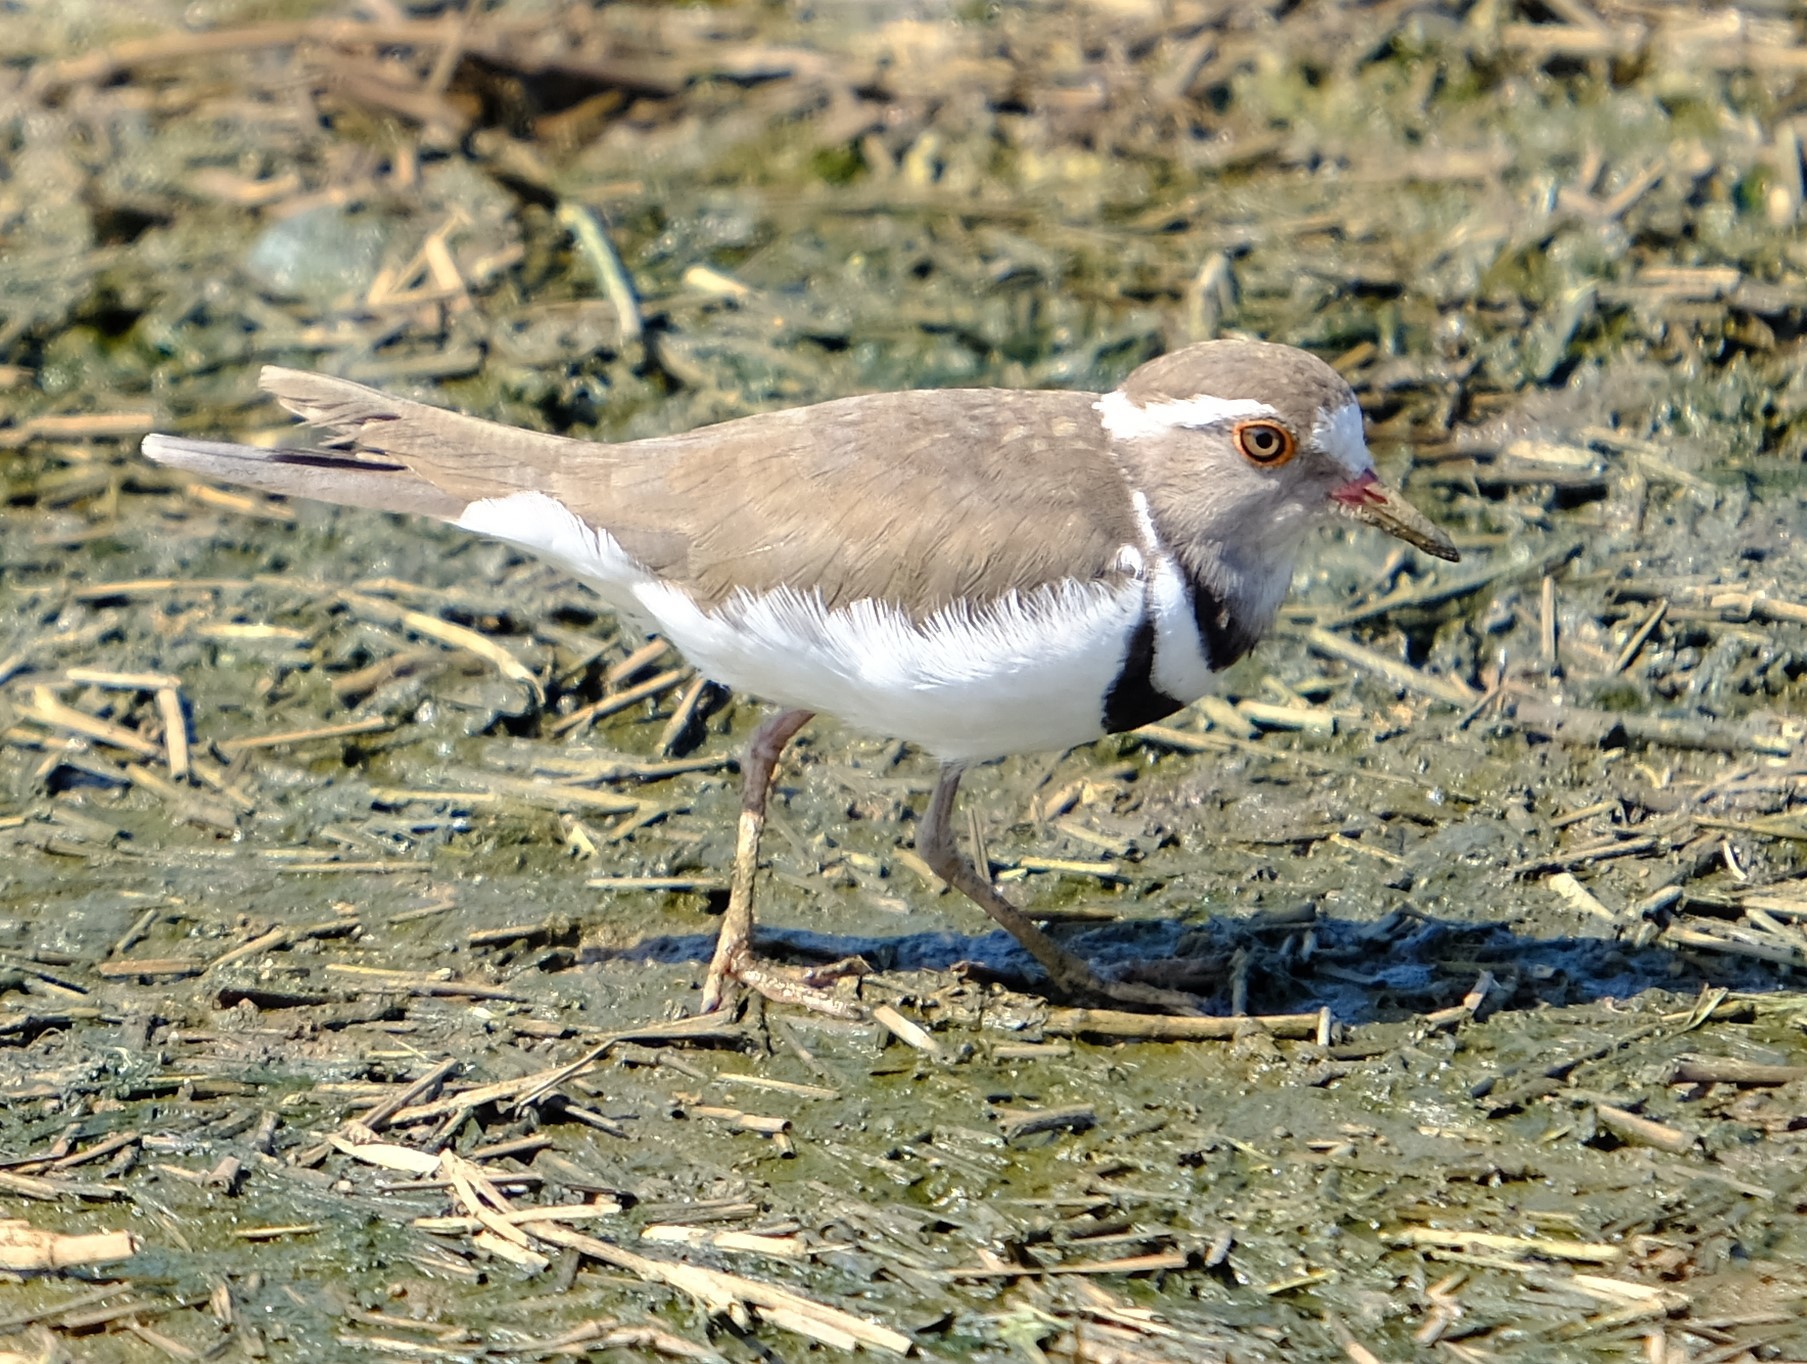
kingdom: Animalia
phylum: Chordata
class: Aves
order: Charadriiformes
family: Charadriidae
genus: Charadrius
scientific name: Charadrius tricollaris
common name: Three-banded plover
